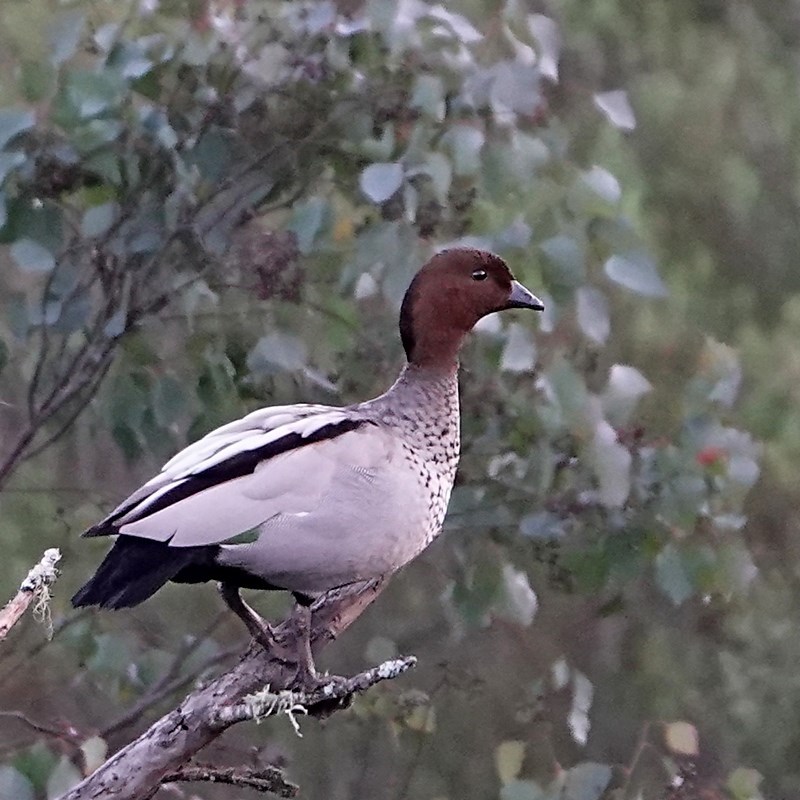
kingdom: Animalia
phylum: Chordata
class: Aves
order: Anseriformes
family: Anatidae
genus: Chenonetta
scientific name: Chenonetta jubata
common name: Maned duck
